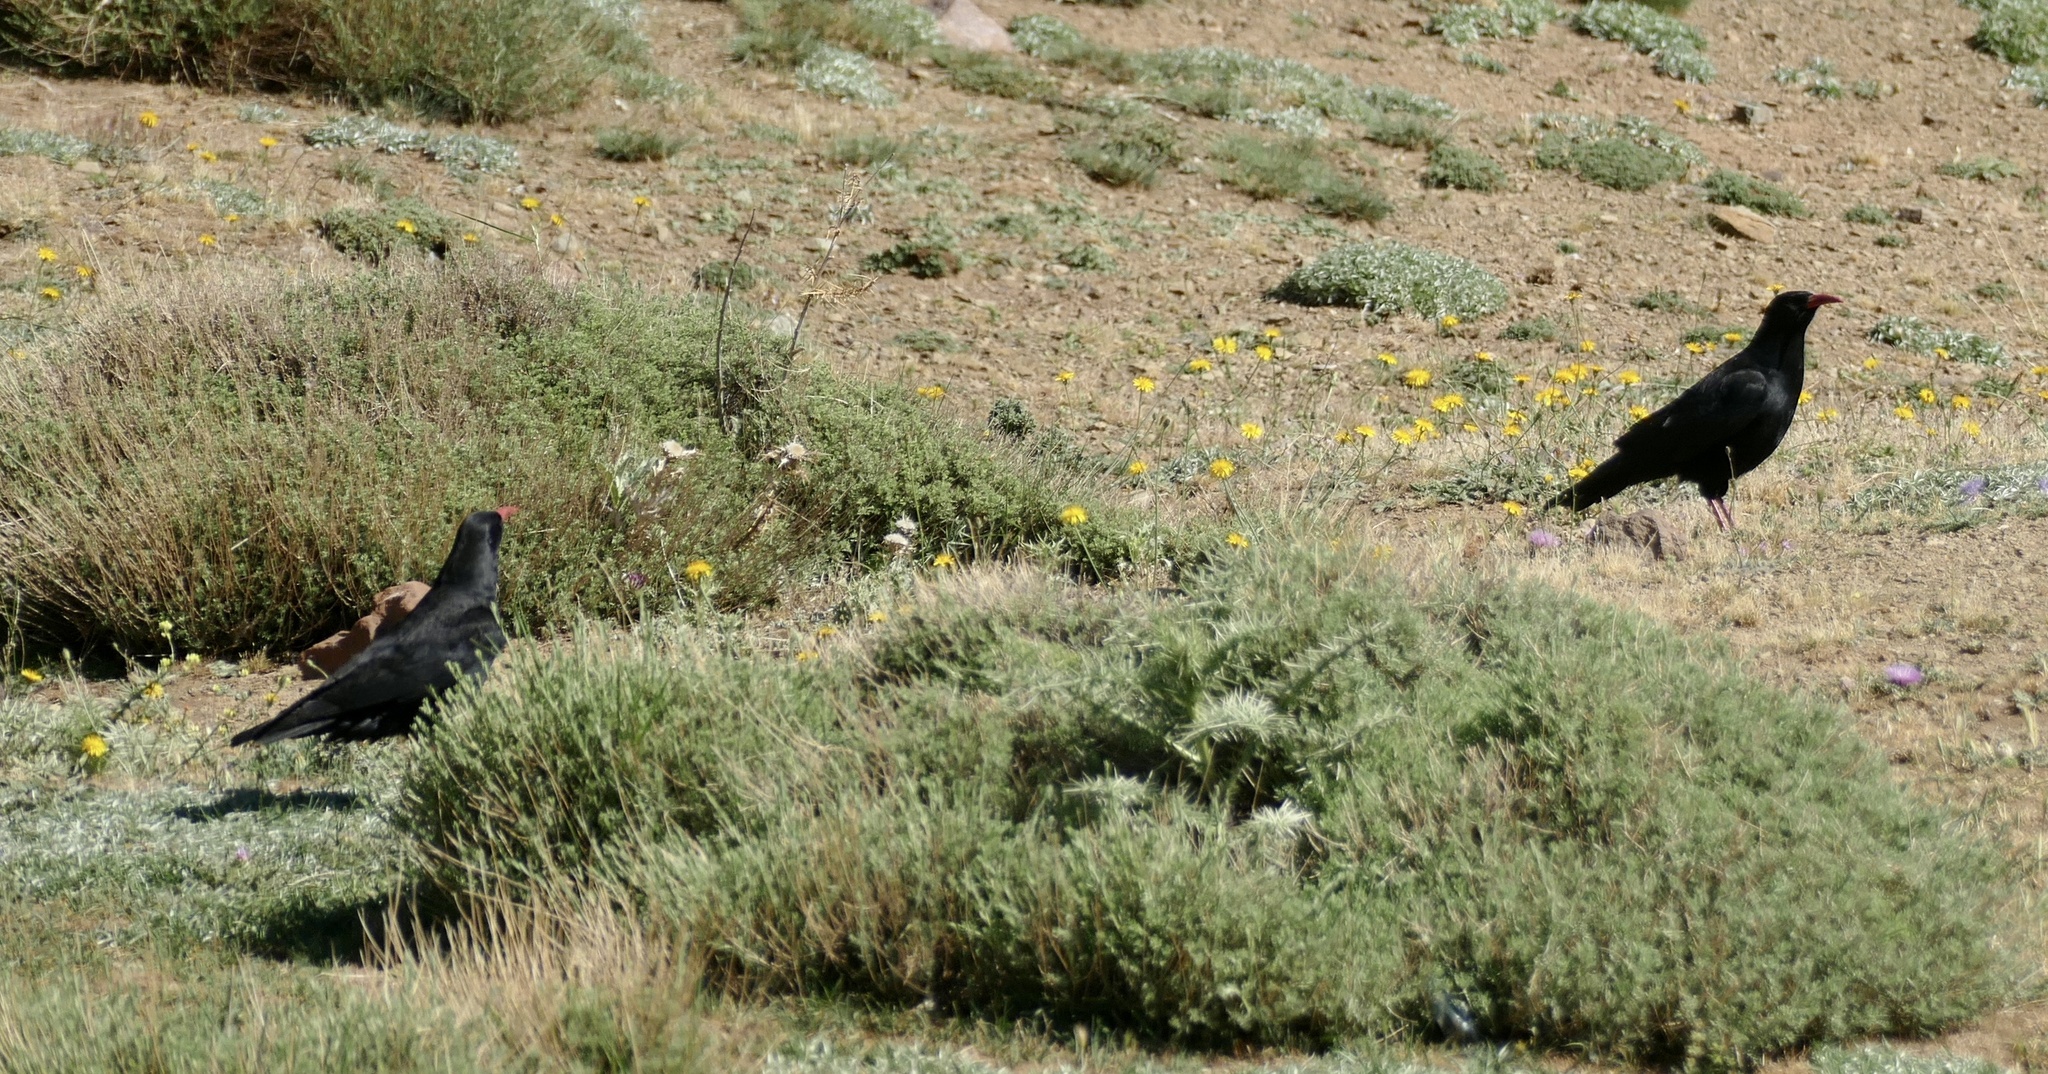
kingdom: Animalia
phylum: Chordata
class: Aves
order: Passeriformes
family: Corvidae
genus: Pyrrhocorax
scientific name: Pyrrhocorax pyrrhocorax
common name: Red-billed chough
